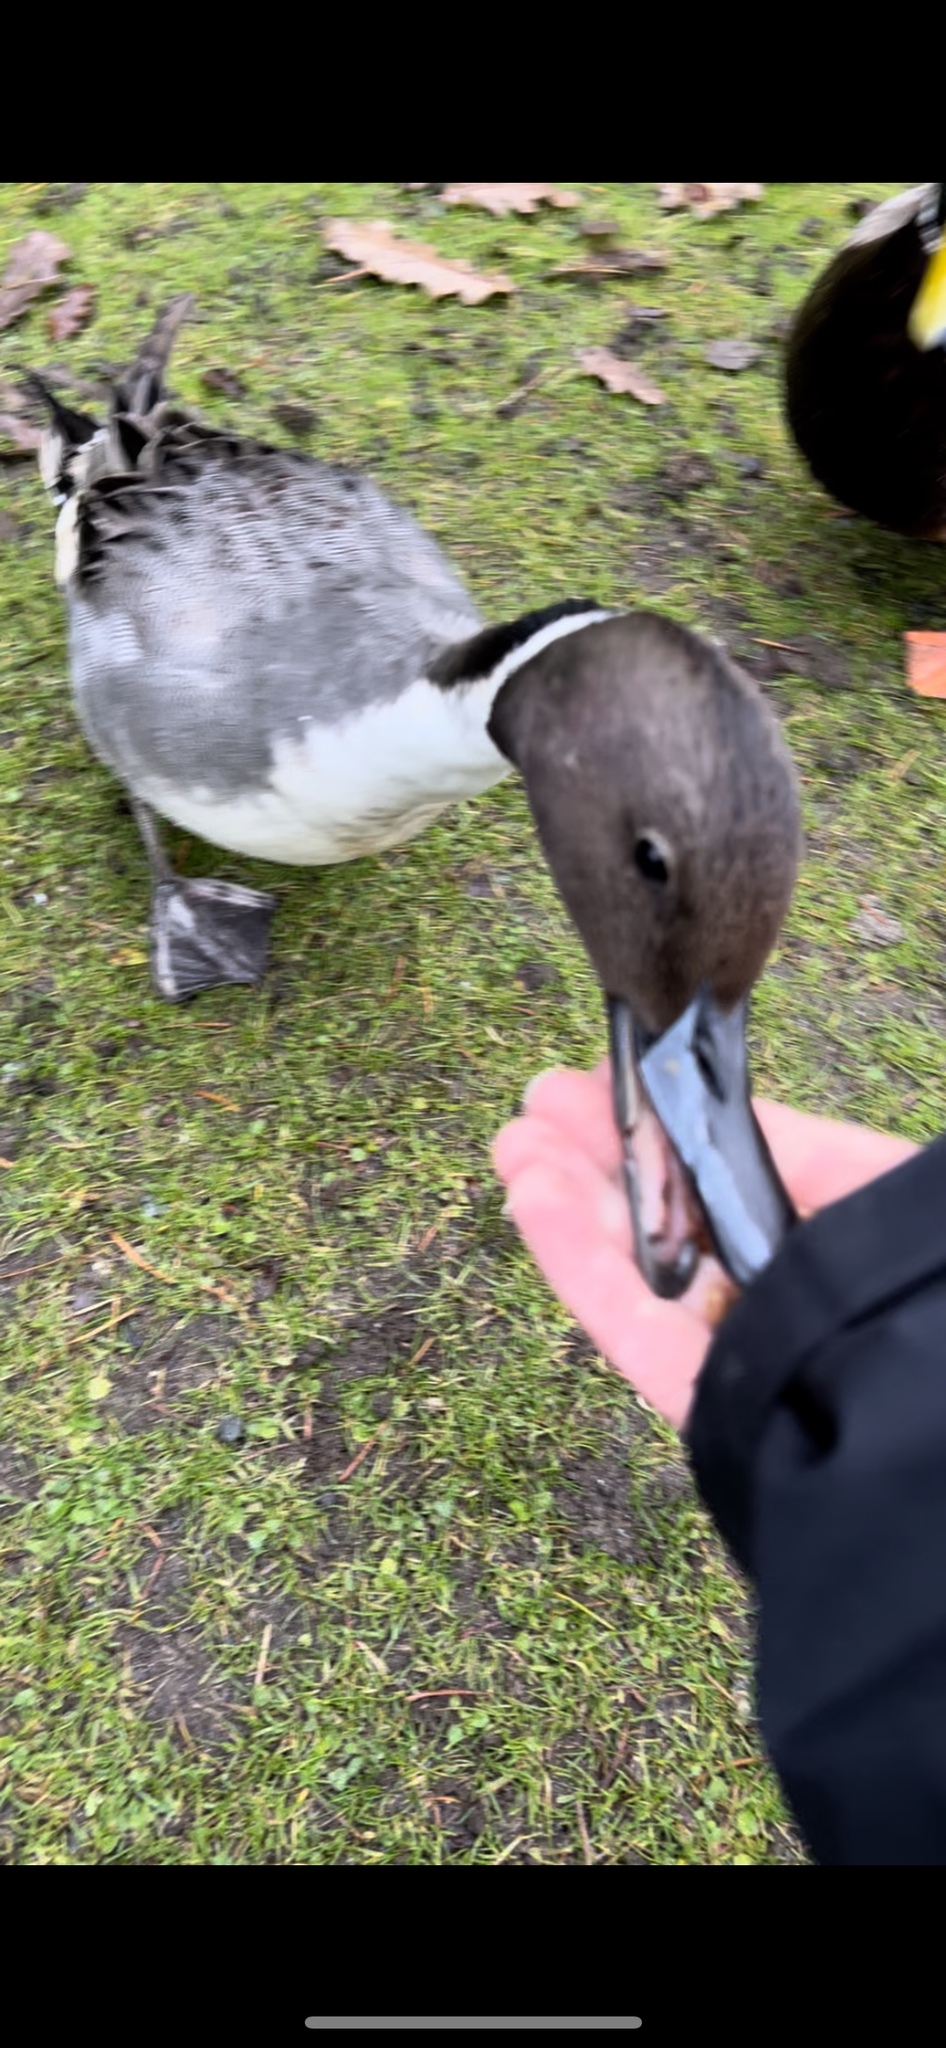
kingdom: Animalia
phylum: Chordata
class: Aves
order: Anseriformes
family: Anatidae
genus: Anas
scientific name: Anas acuta
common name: Northern pintail
